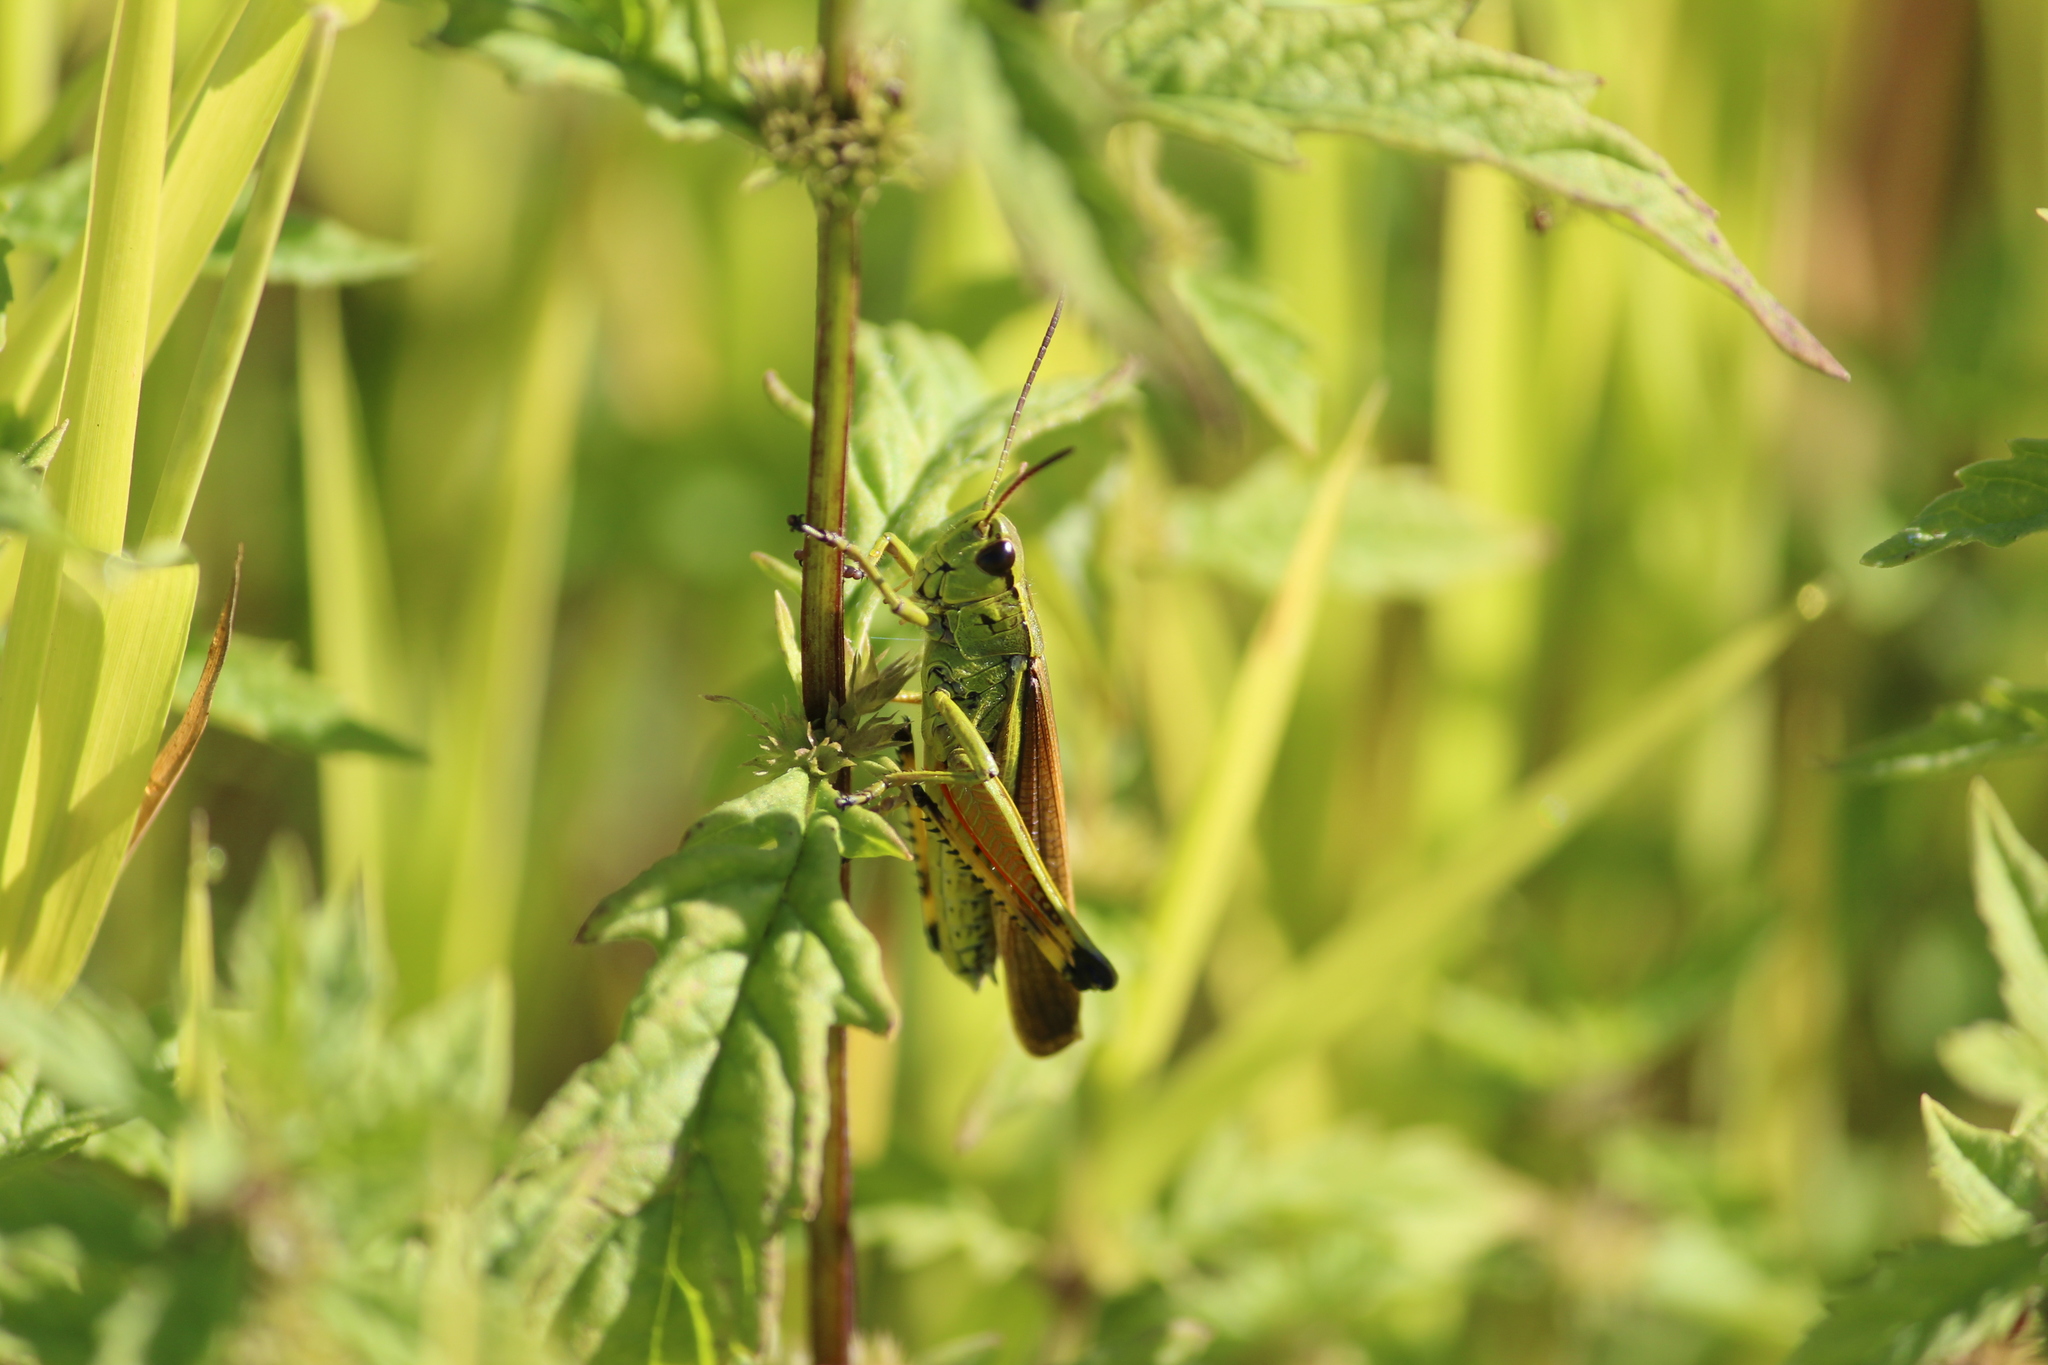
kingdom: Animalia
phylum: Arthropoda
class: Insecta
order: Orthoptera
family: Acrididae
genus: Stethophyma
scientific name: Stethophyma grossum
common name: Large marsh grasshopper
